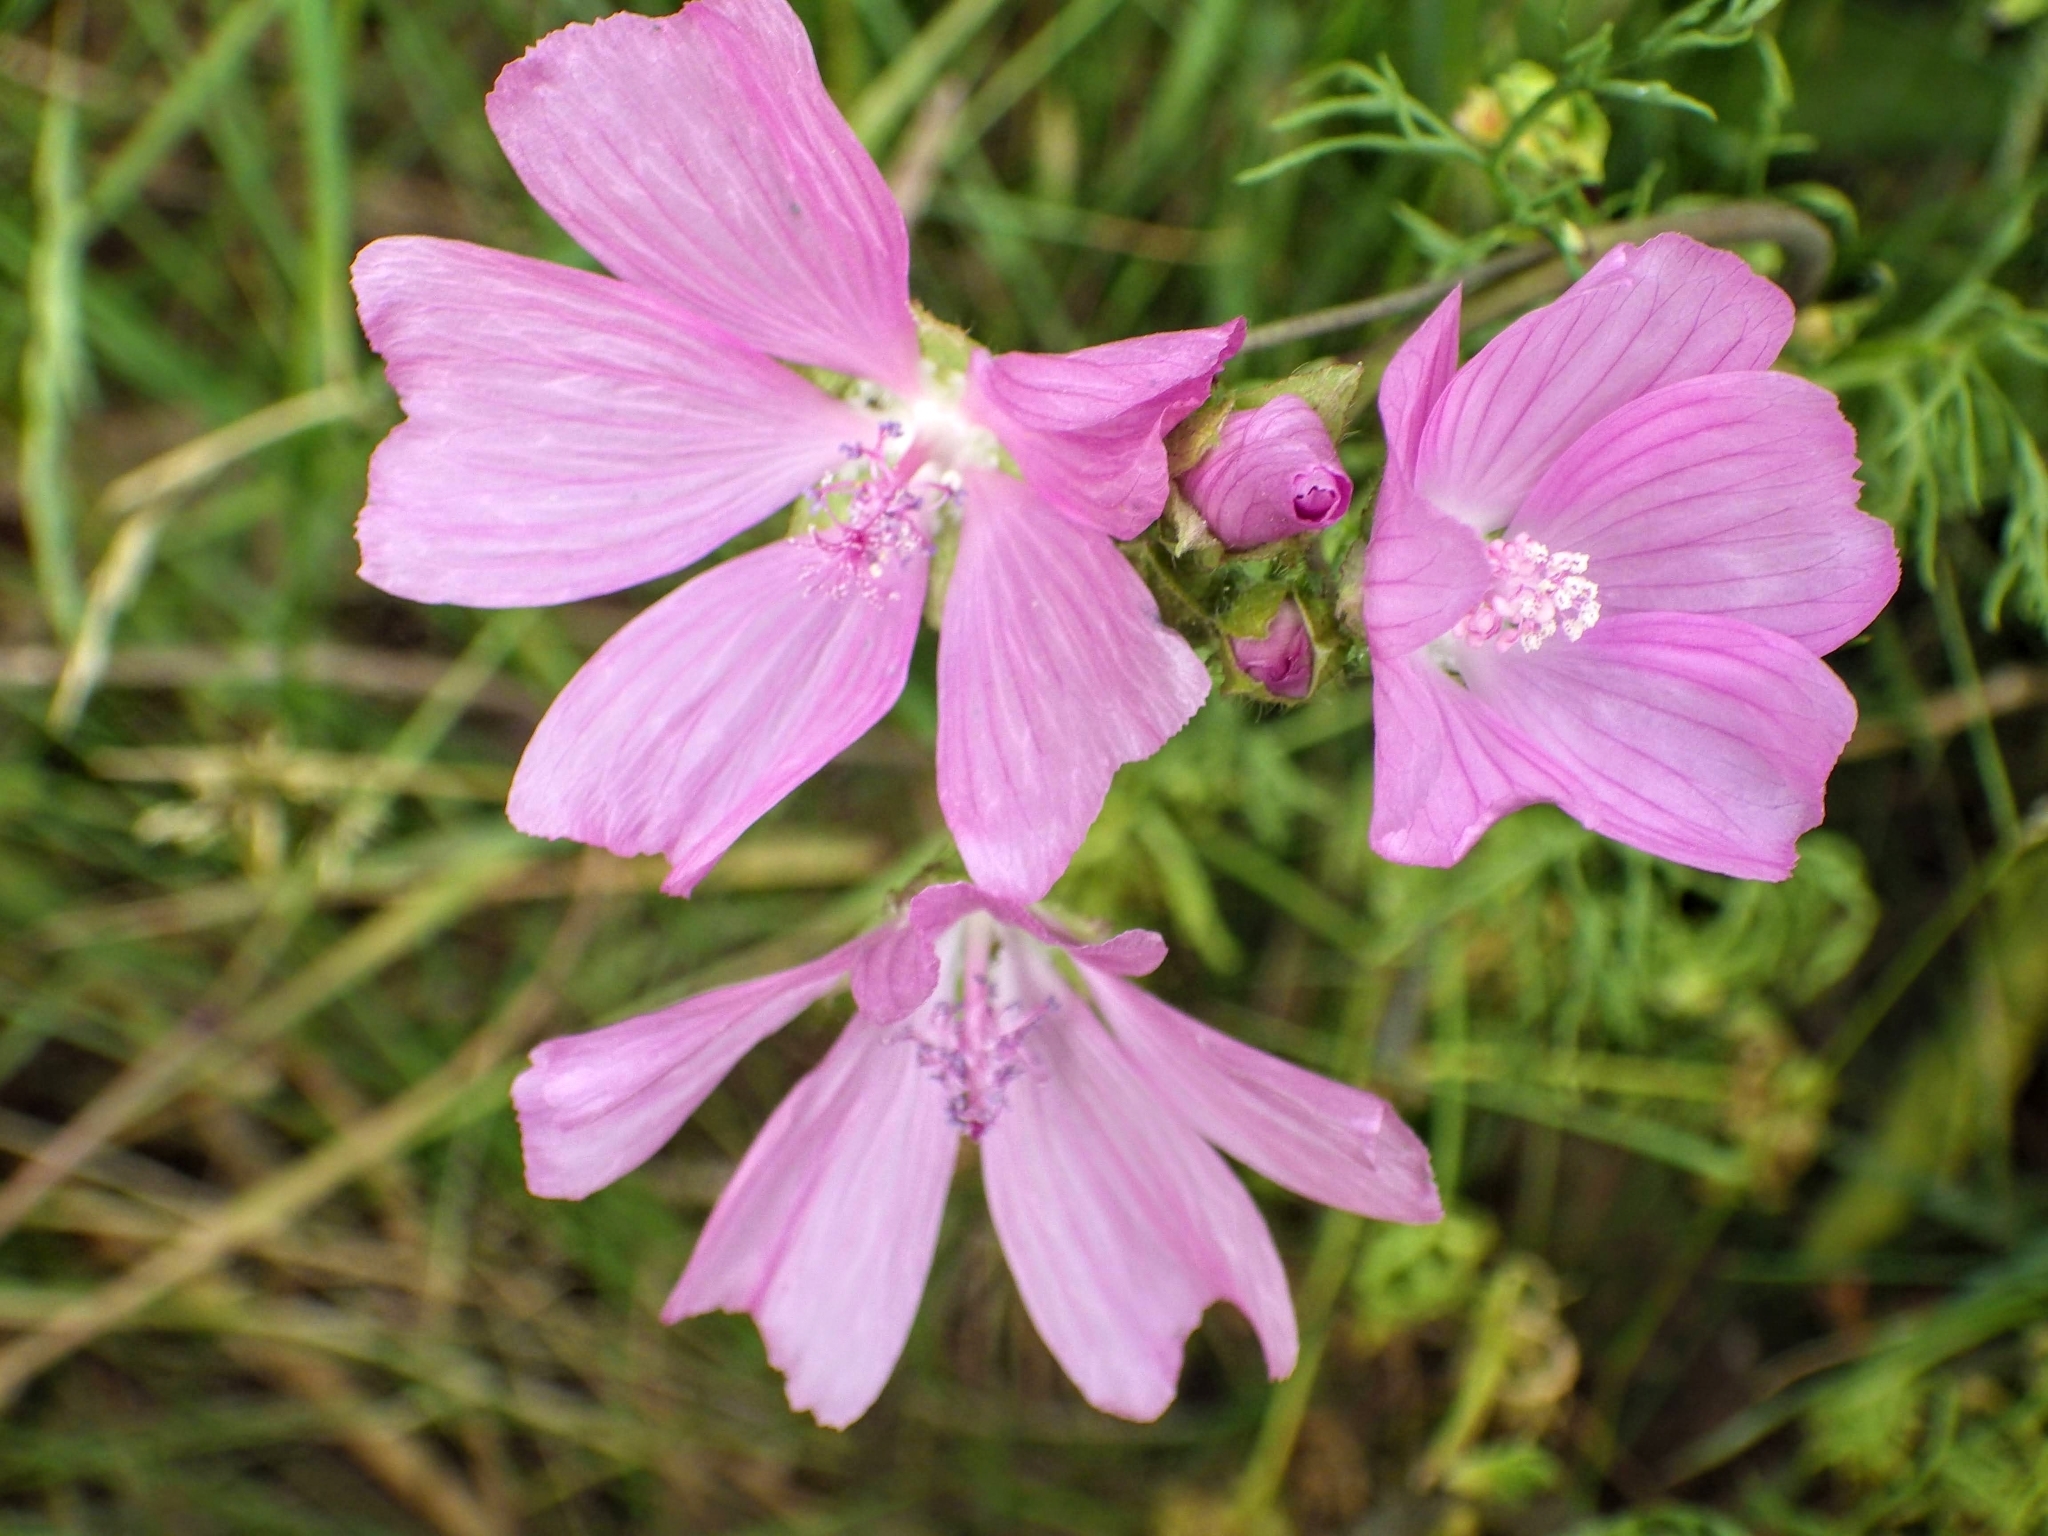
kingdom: Plantae
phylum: Tracheophyta
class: Magnoliopsida
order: Malvales
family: Malvaceae
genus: Malva
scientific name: Malva moschata
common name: Musk mallow
